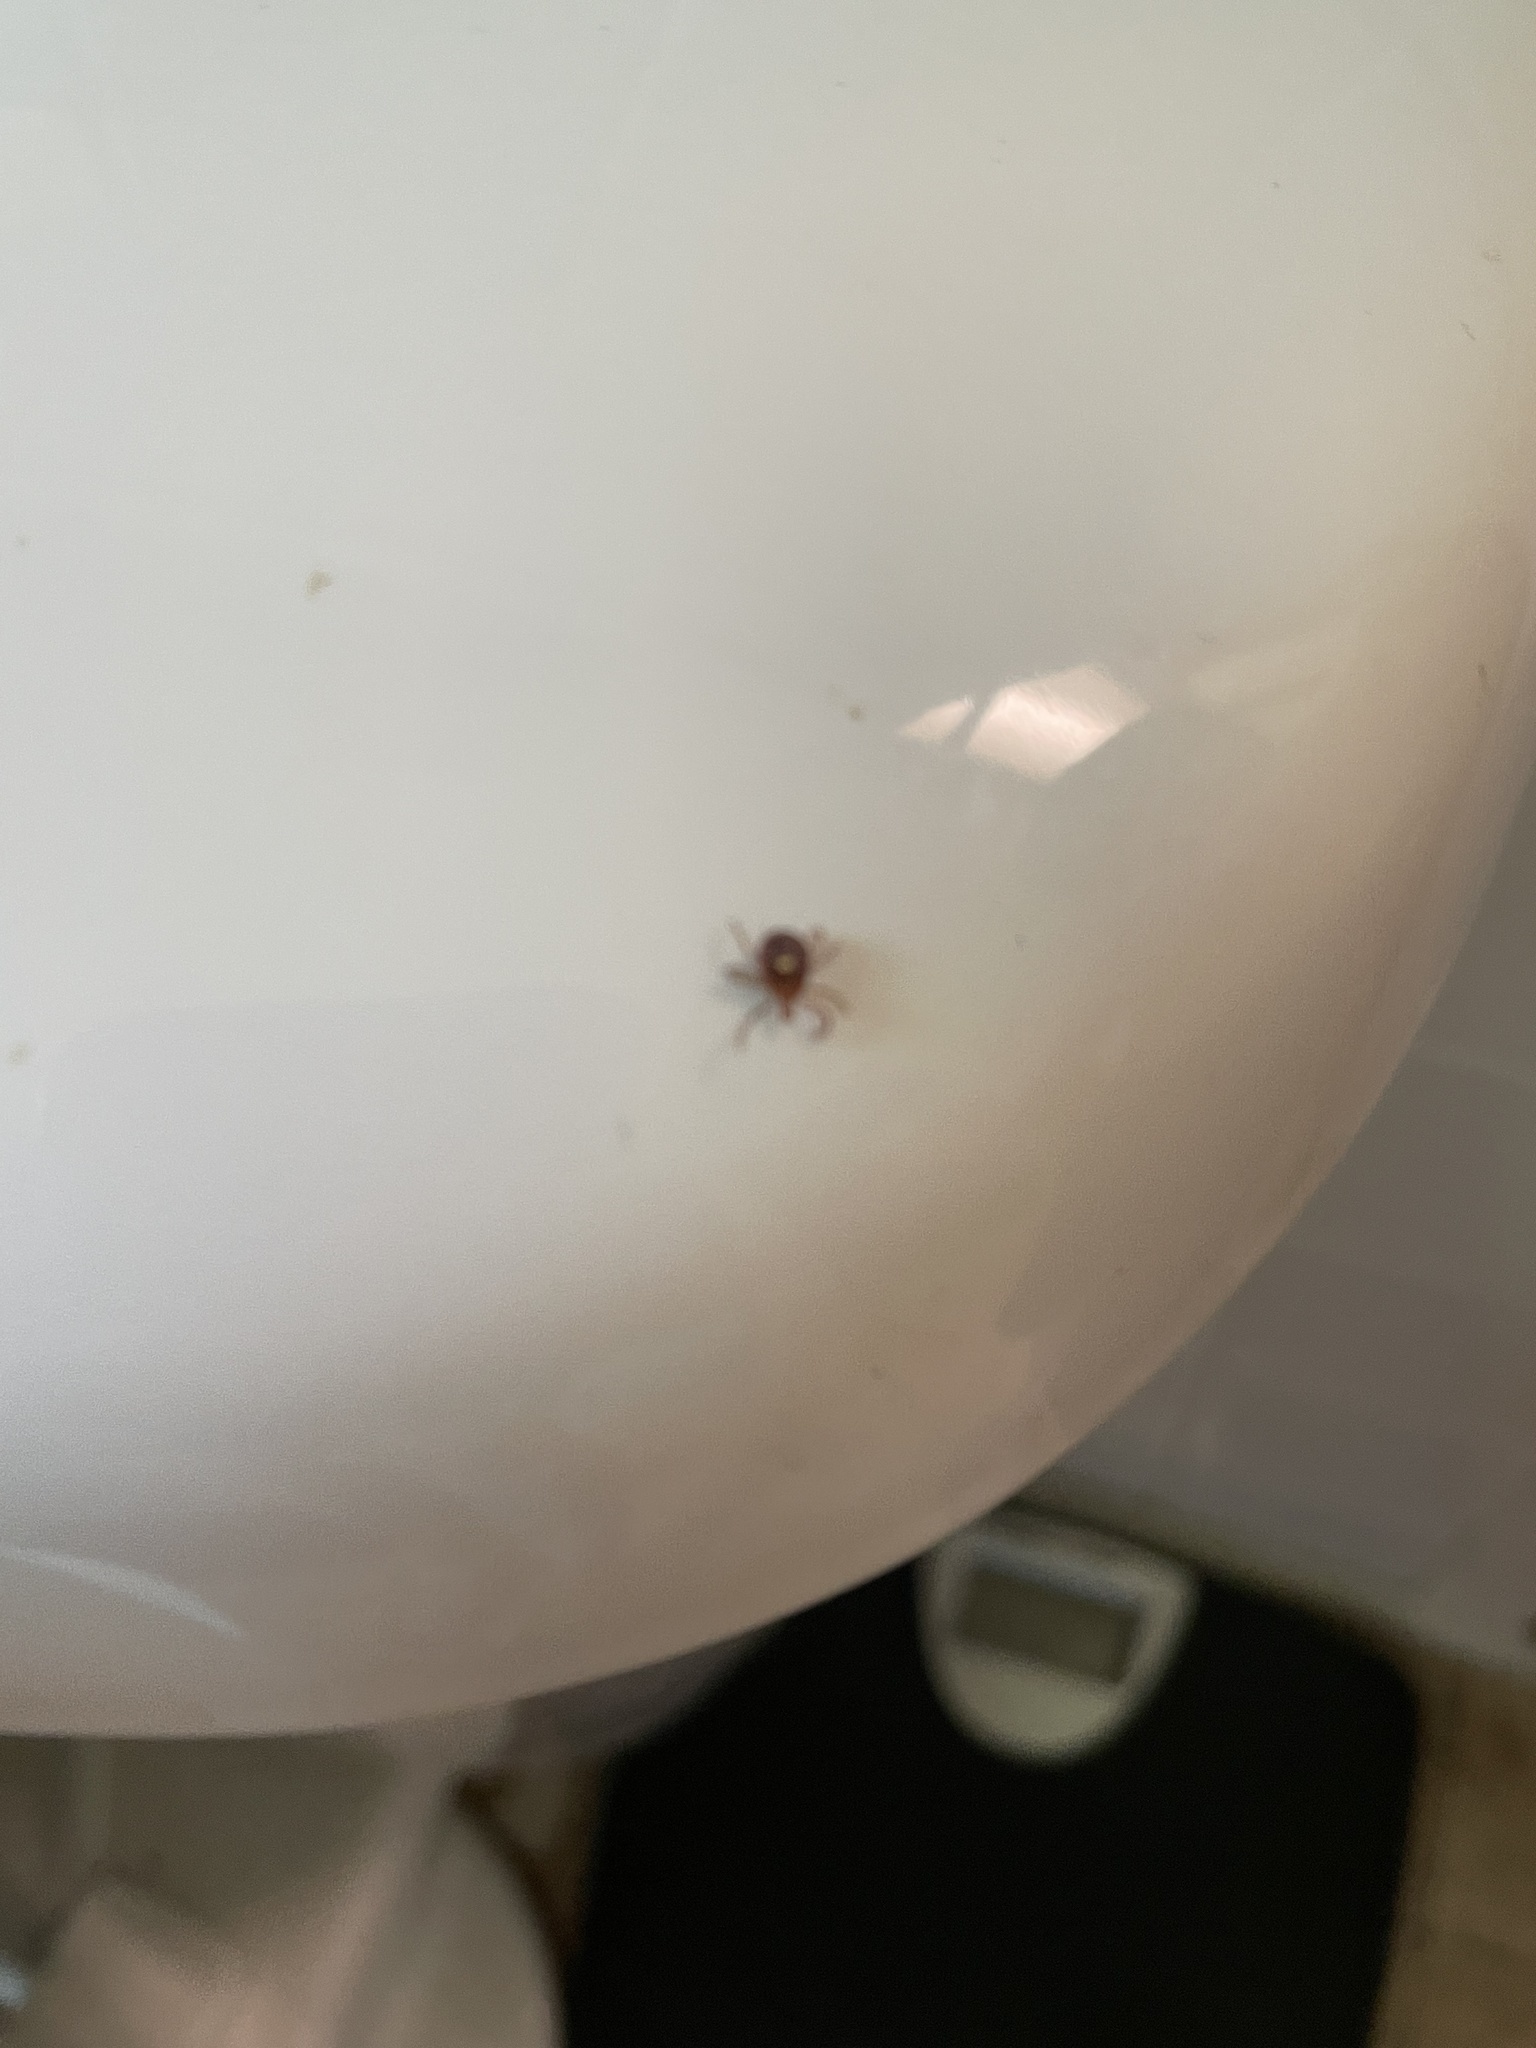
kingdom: Animalia
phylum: Arthropoda
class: Arachnida
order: Ixodida
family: Ixodidae
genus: Amblyomma
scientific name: Amblyomma americanum
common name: Lone star tick
